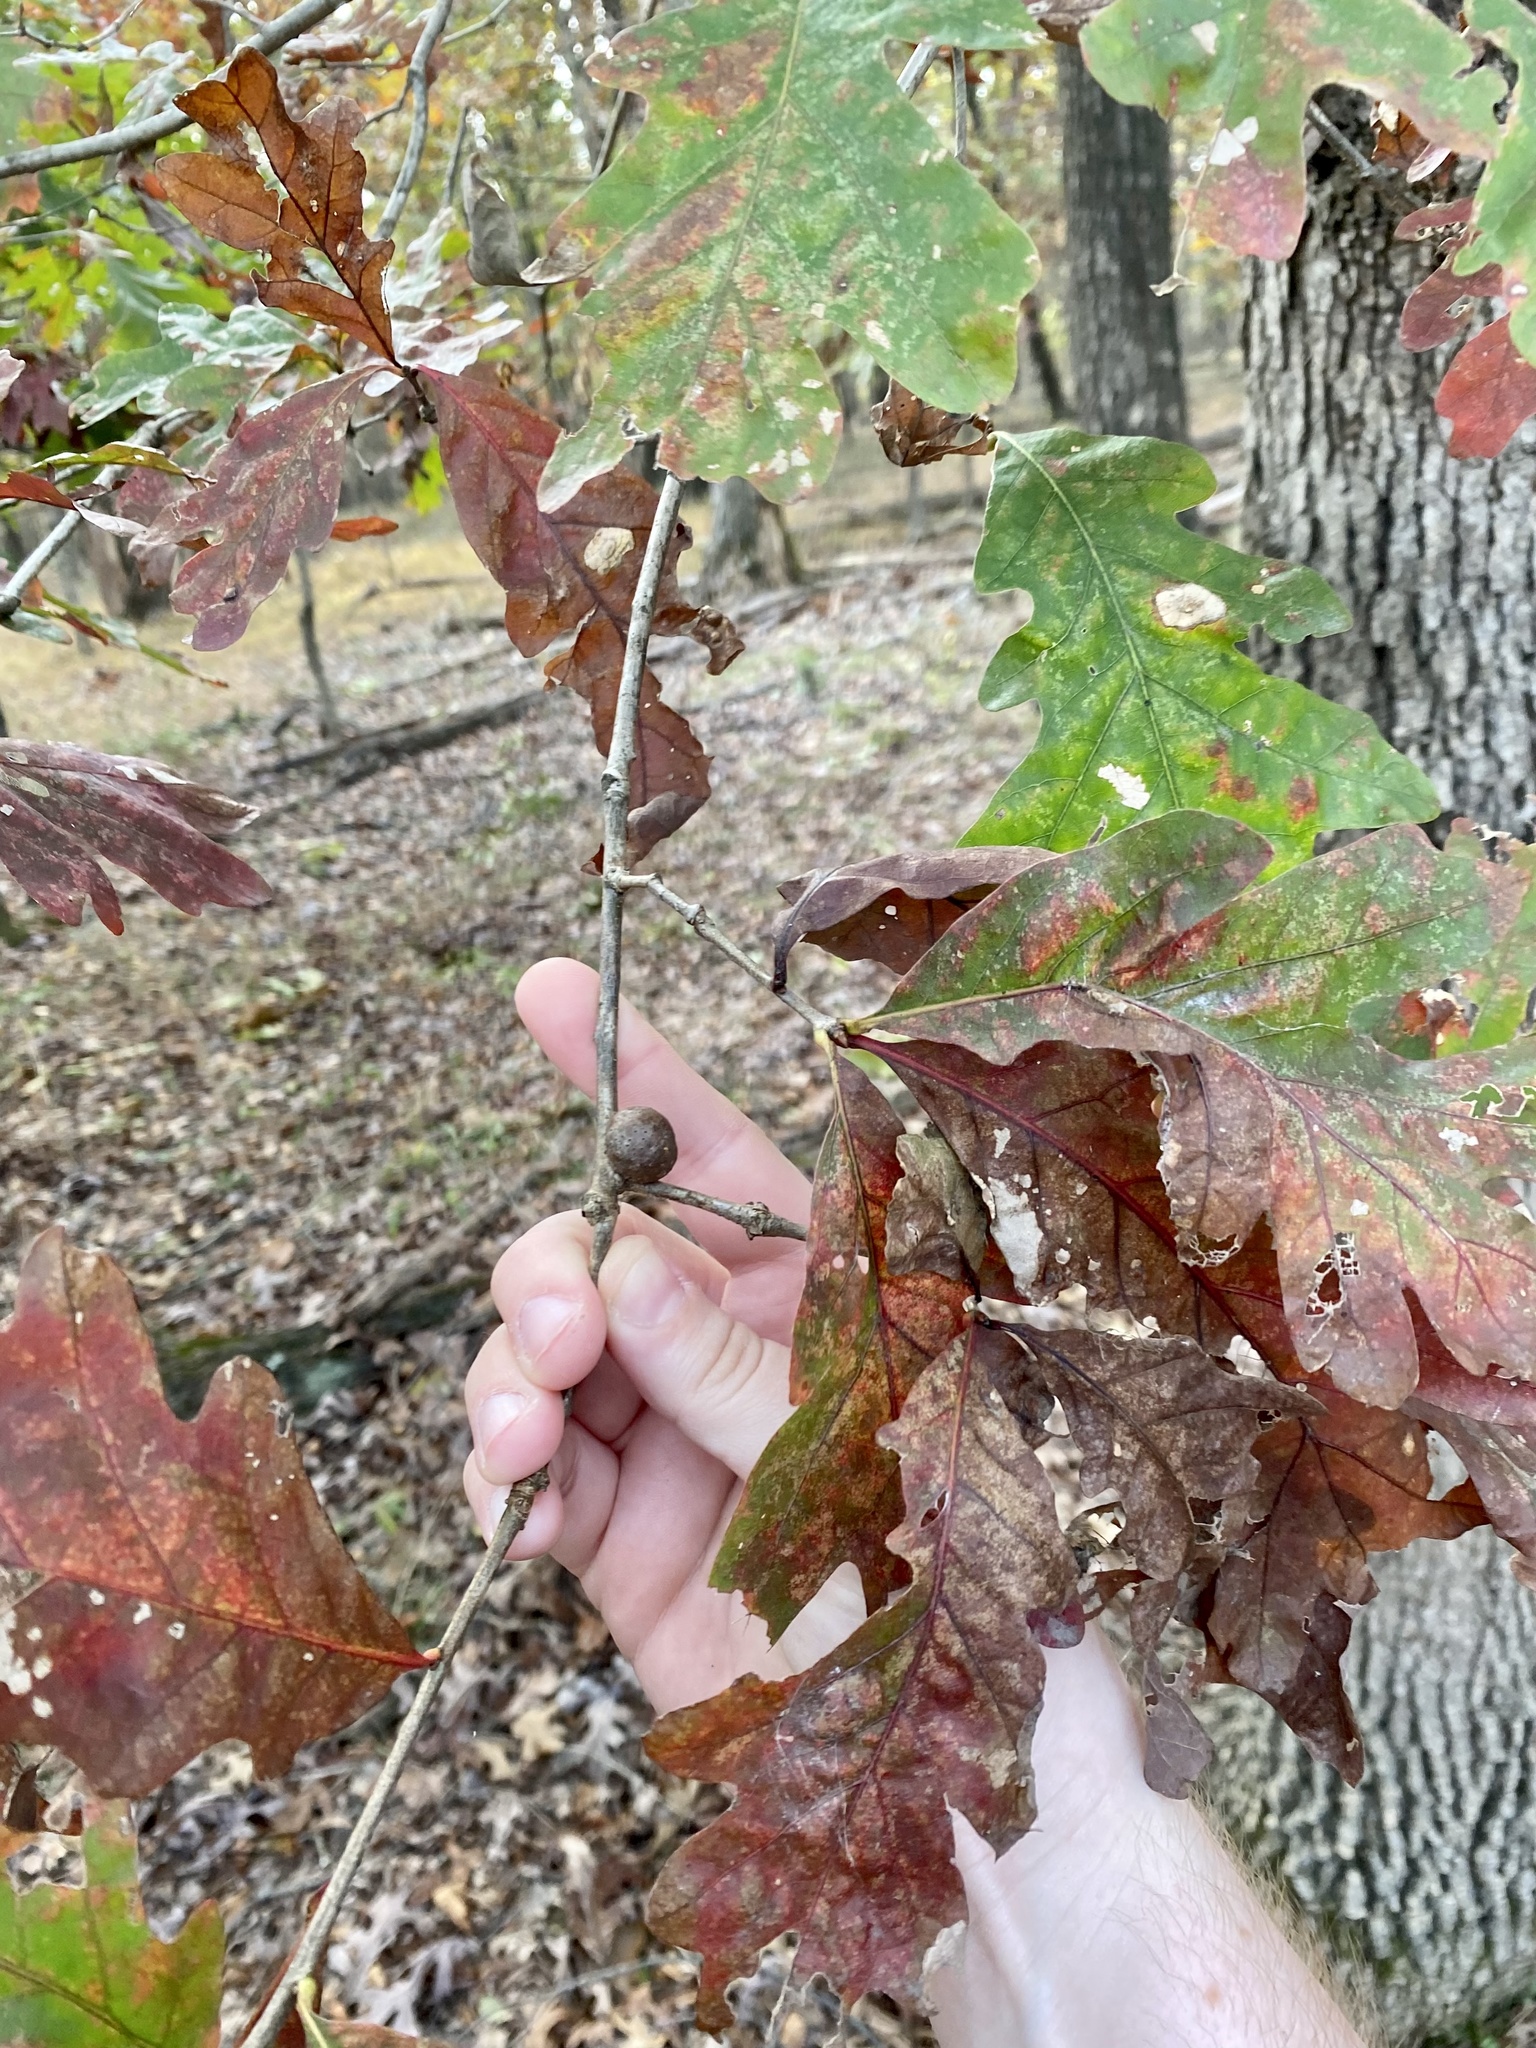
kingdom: Animalia
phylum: Arthropoda
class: Insecta
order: Hymenoptera
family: Cynipidae
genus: Disholcaspis
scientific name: Disholcaspis quercusglobulus
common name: Round bullet gall wasp
